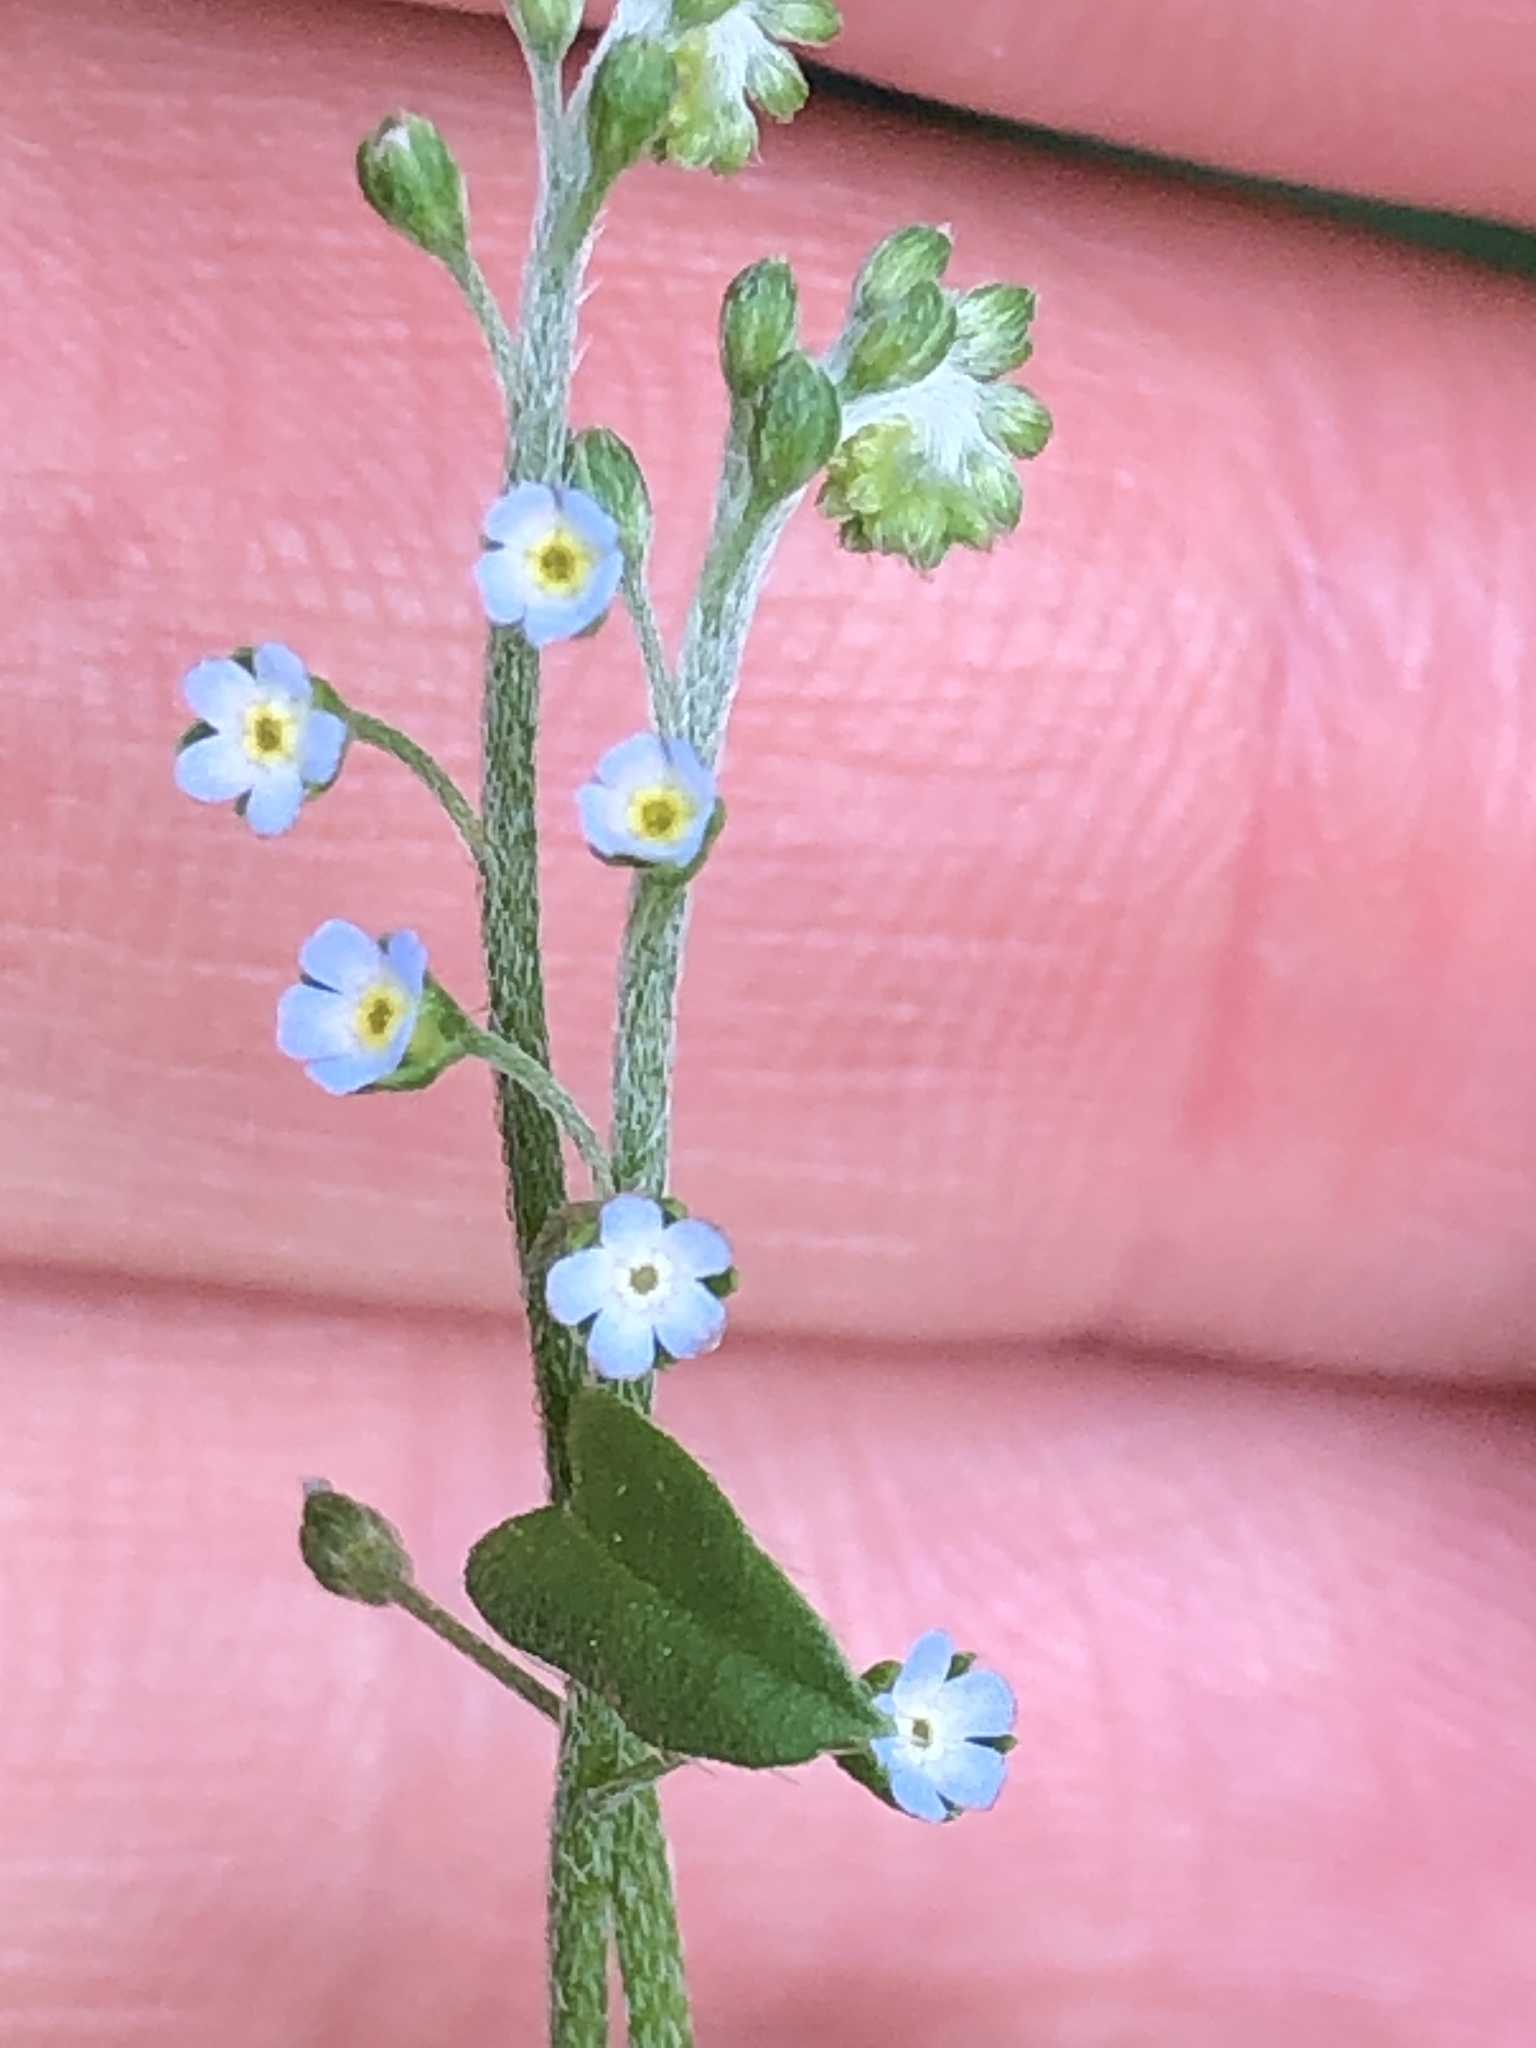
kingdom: Plantae
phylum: Tracheophyta
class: Magnoliopsida
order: Boraginales
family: Boraginaceae
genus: Trigonotis
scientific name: Trigonotis peduncularis
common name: Cucumber herb
